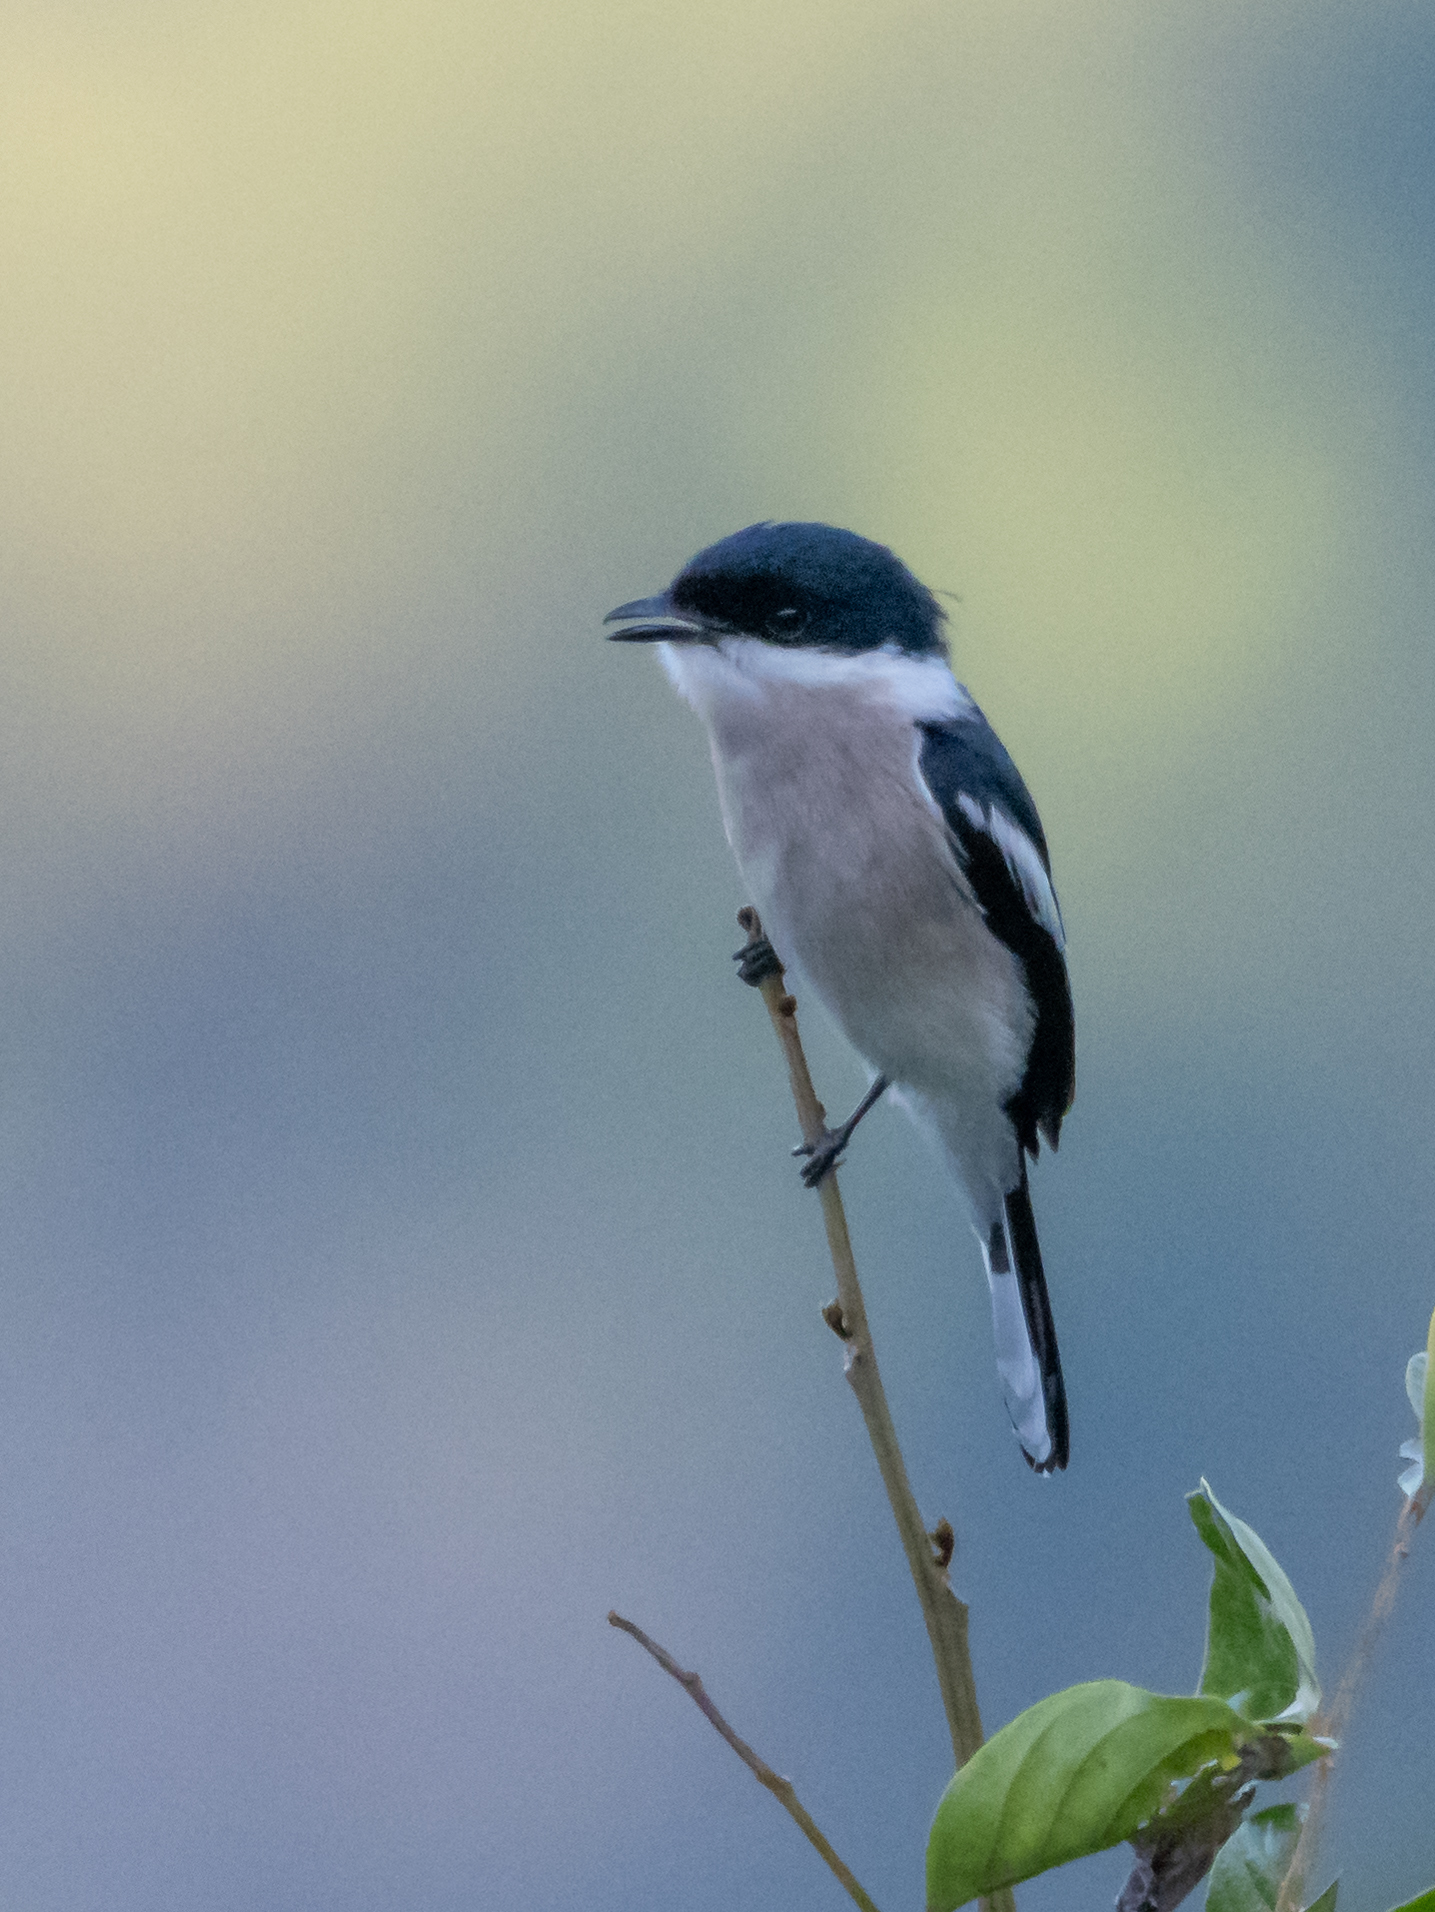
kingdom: Animalia
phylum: Chordata
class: Aves
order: Passeriformes
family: Tephrodornithidae
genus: Hemipus
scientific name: Hemipus picatus
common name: Bar-winged flycatcher-shrike
